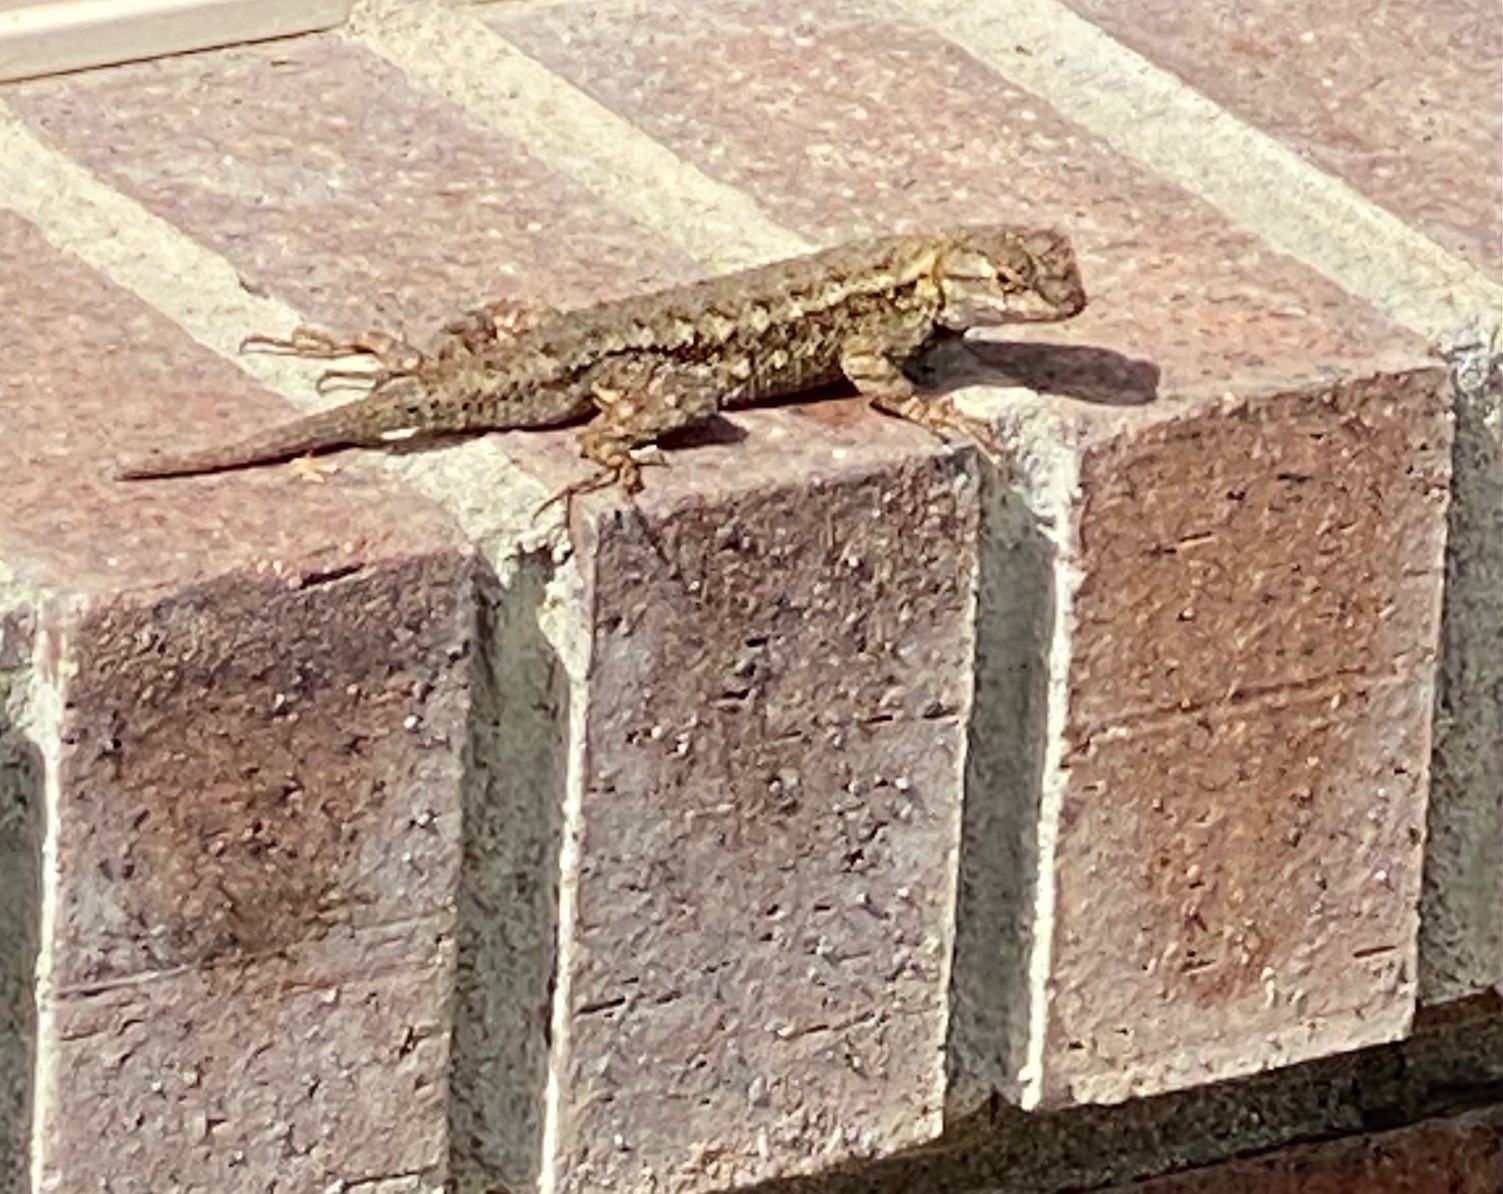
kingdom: Animalia
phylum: Chordata
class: Squamata
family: Phrynosomatidae
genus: Sceloporus
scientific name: Sceloporus occidentalis
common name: Western fence lizard
